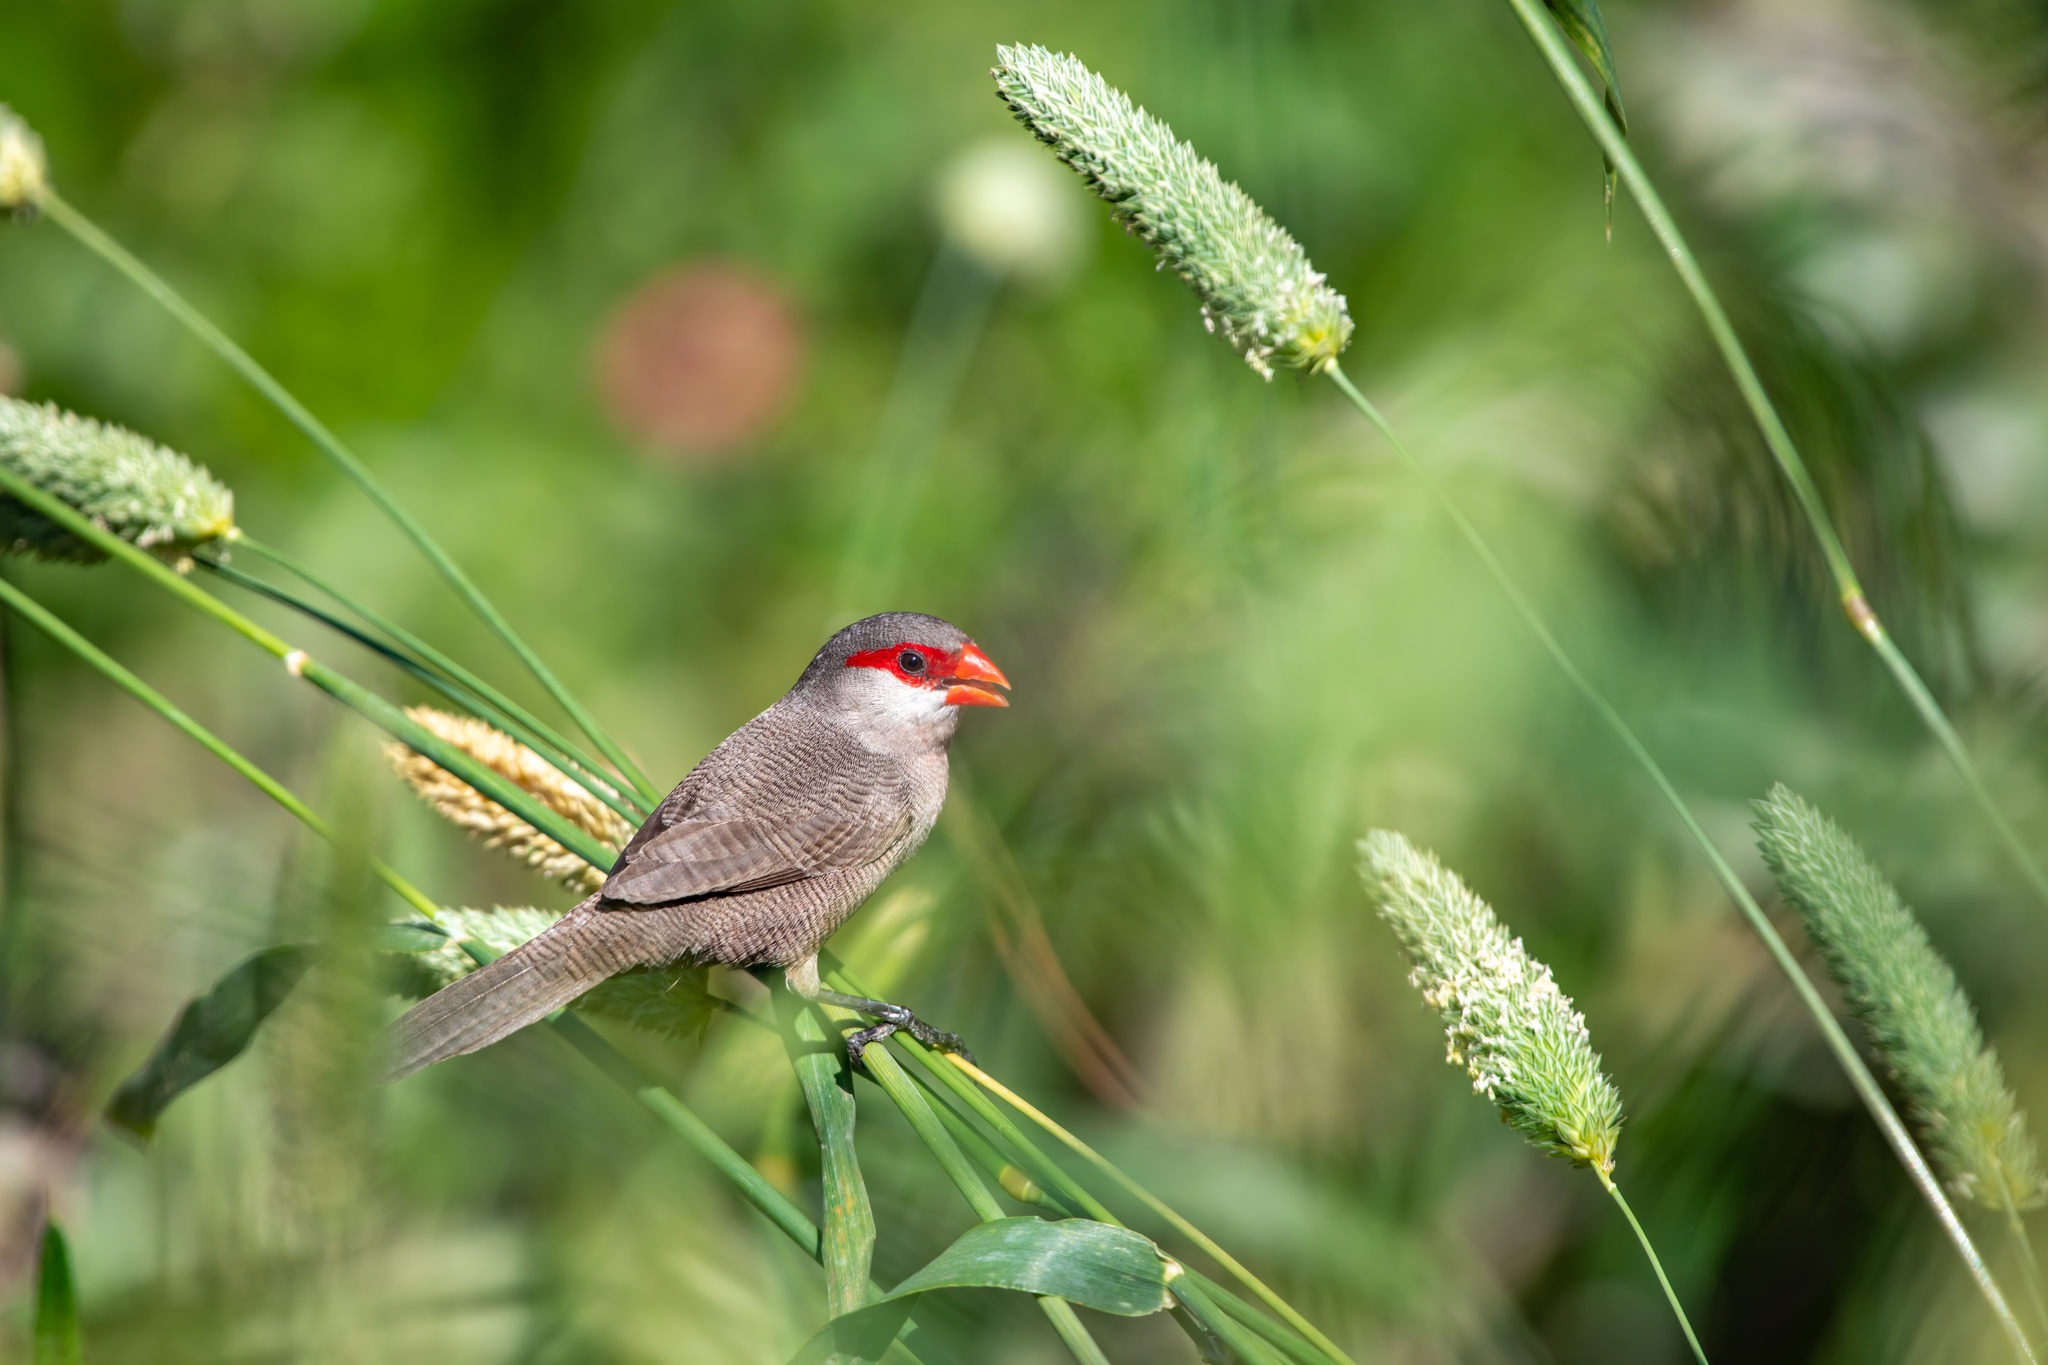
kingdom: Animalia
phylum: Chordata
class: Aves
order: Passeriformes
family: Estrildidae
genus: Estrilda
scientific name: Estrilda astrild
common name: Common waxbill
